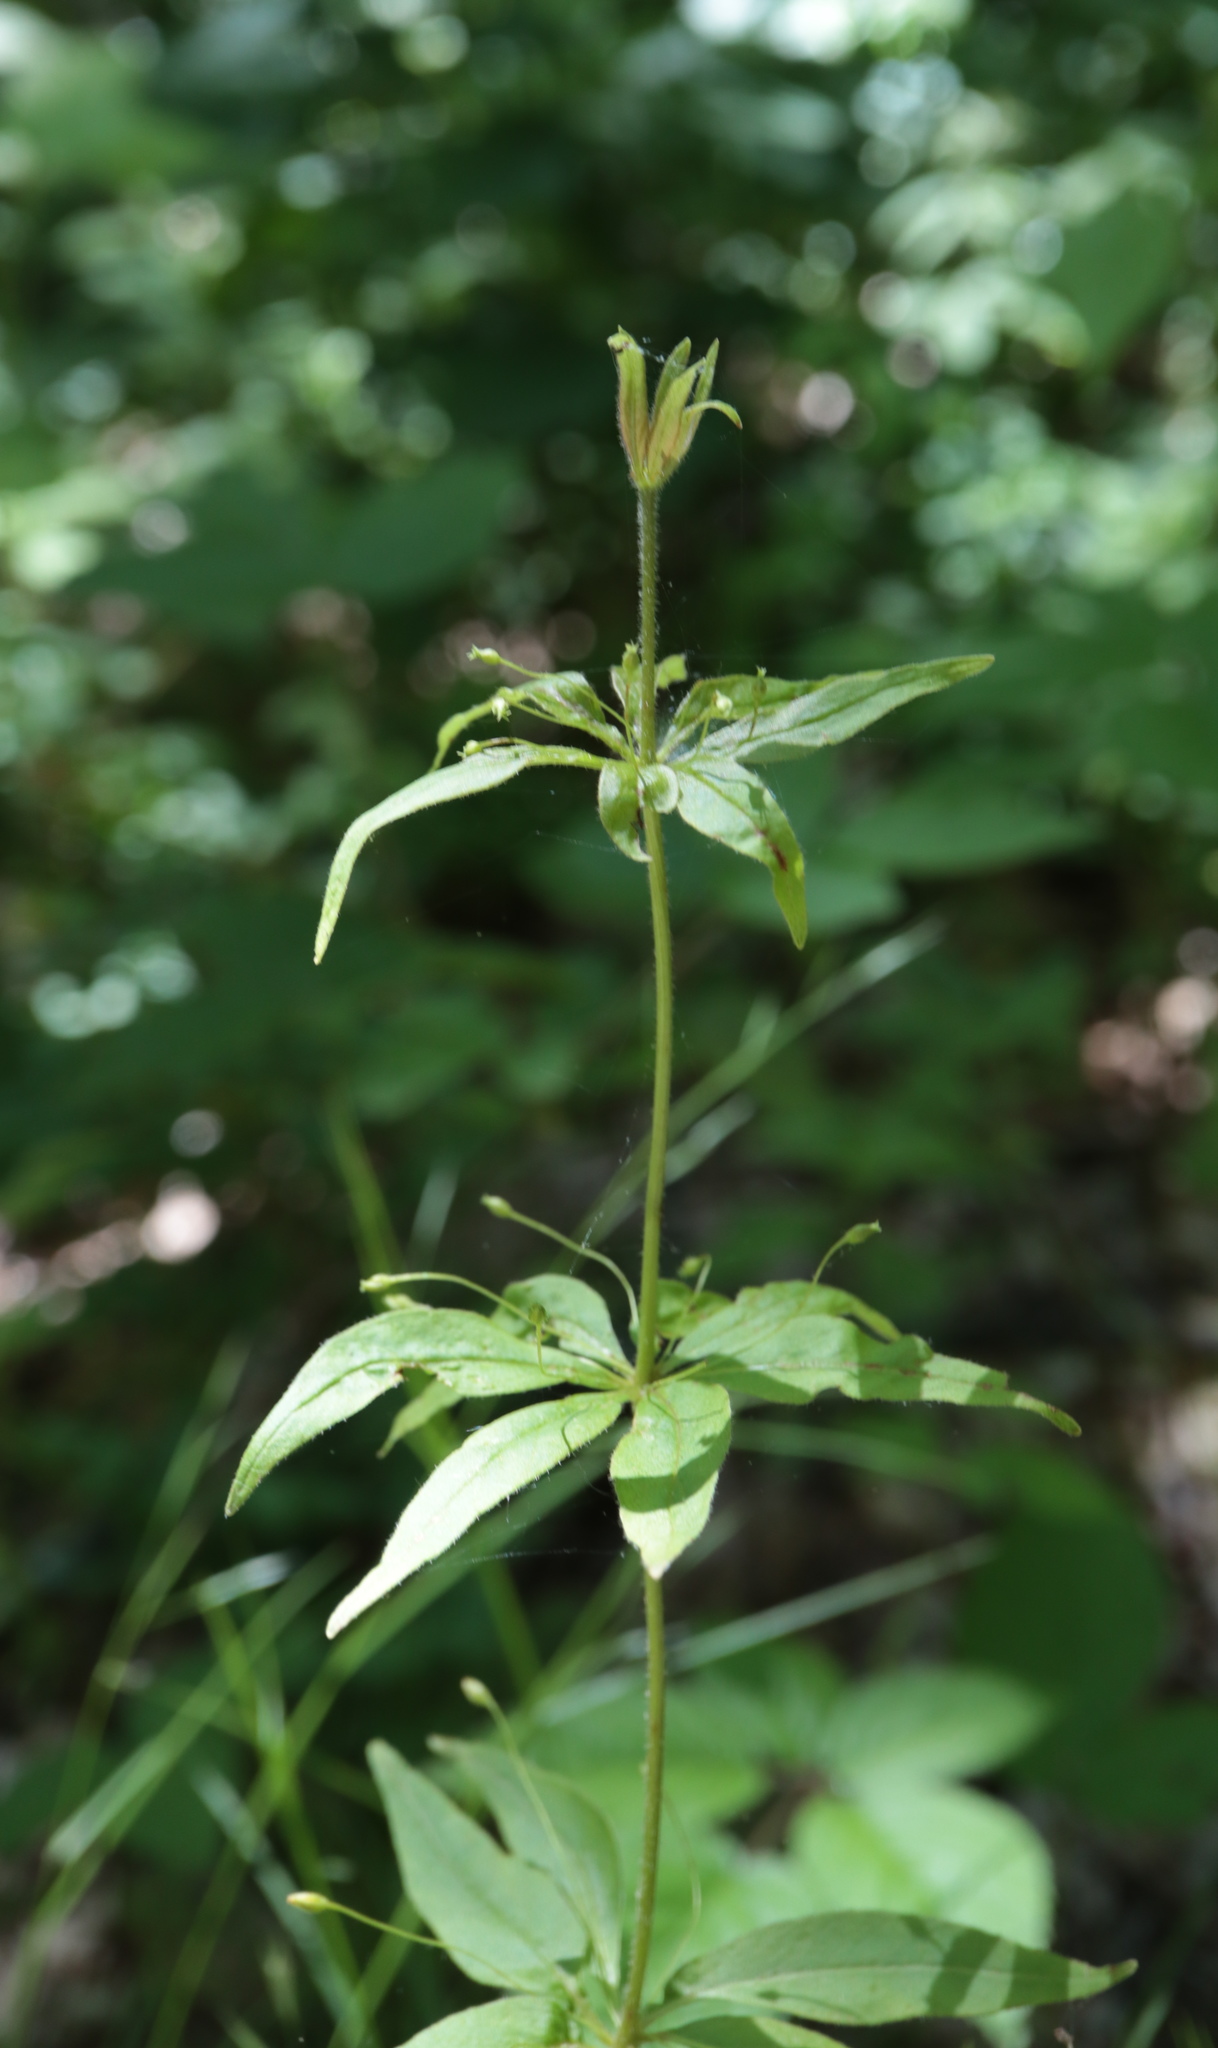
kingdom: Plantae
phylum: Tracheophyta
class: Magnoliopsida
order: Ericales
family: Primulaceae
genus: Lysimachia
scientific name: Lysimachia quadrifolia
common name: Whorled loosestrife
